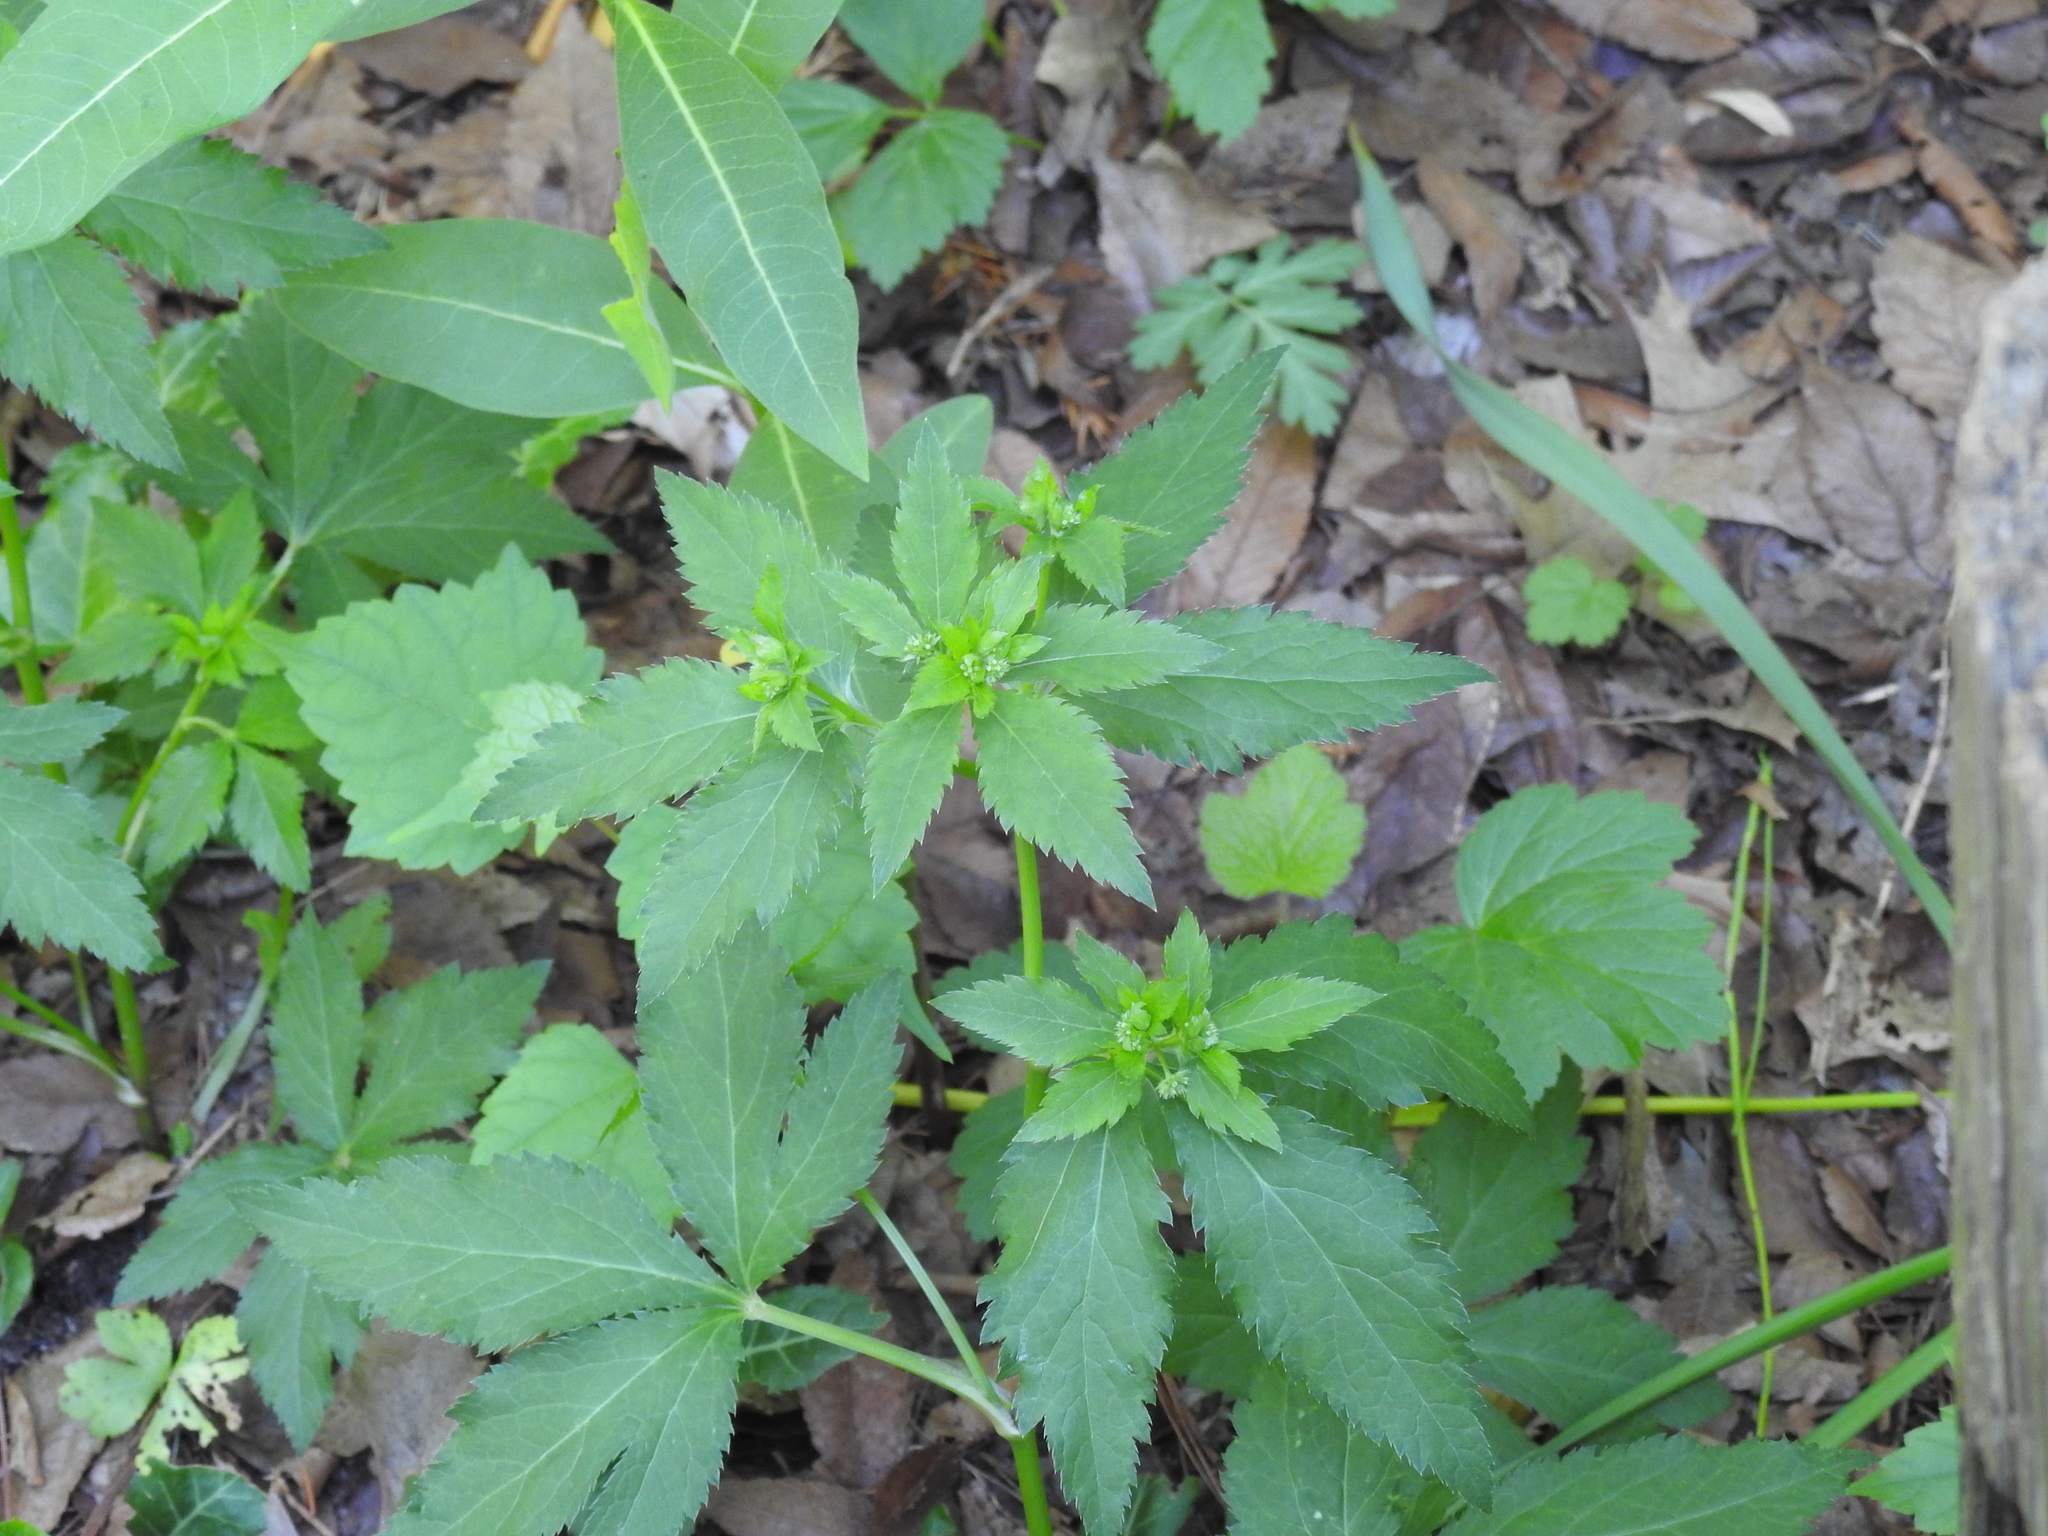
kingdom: Plantae
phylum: Tracheophyta
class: Magnoliopsida
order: Apiales
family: Apiaceae
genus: Sanicula
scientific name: Sanicula canadensis
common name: Canada sanicle
